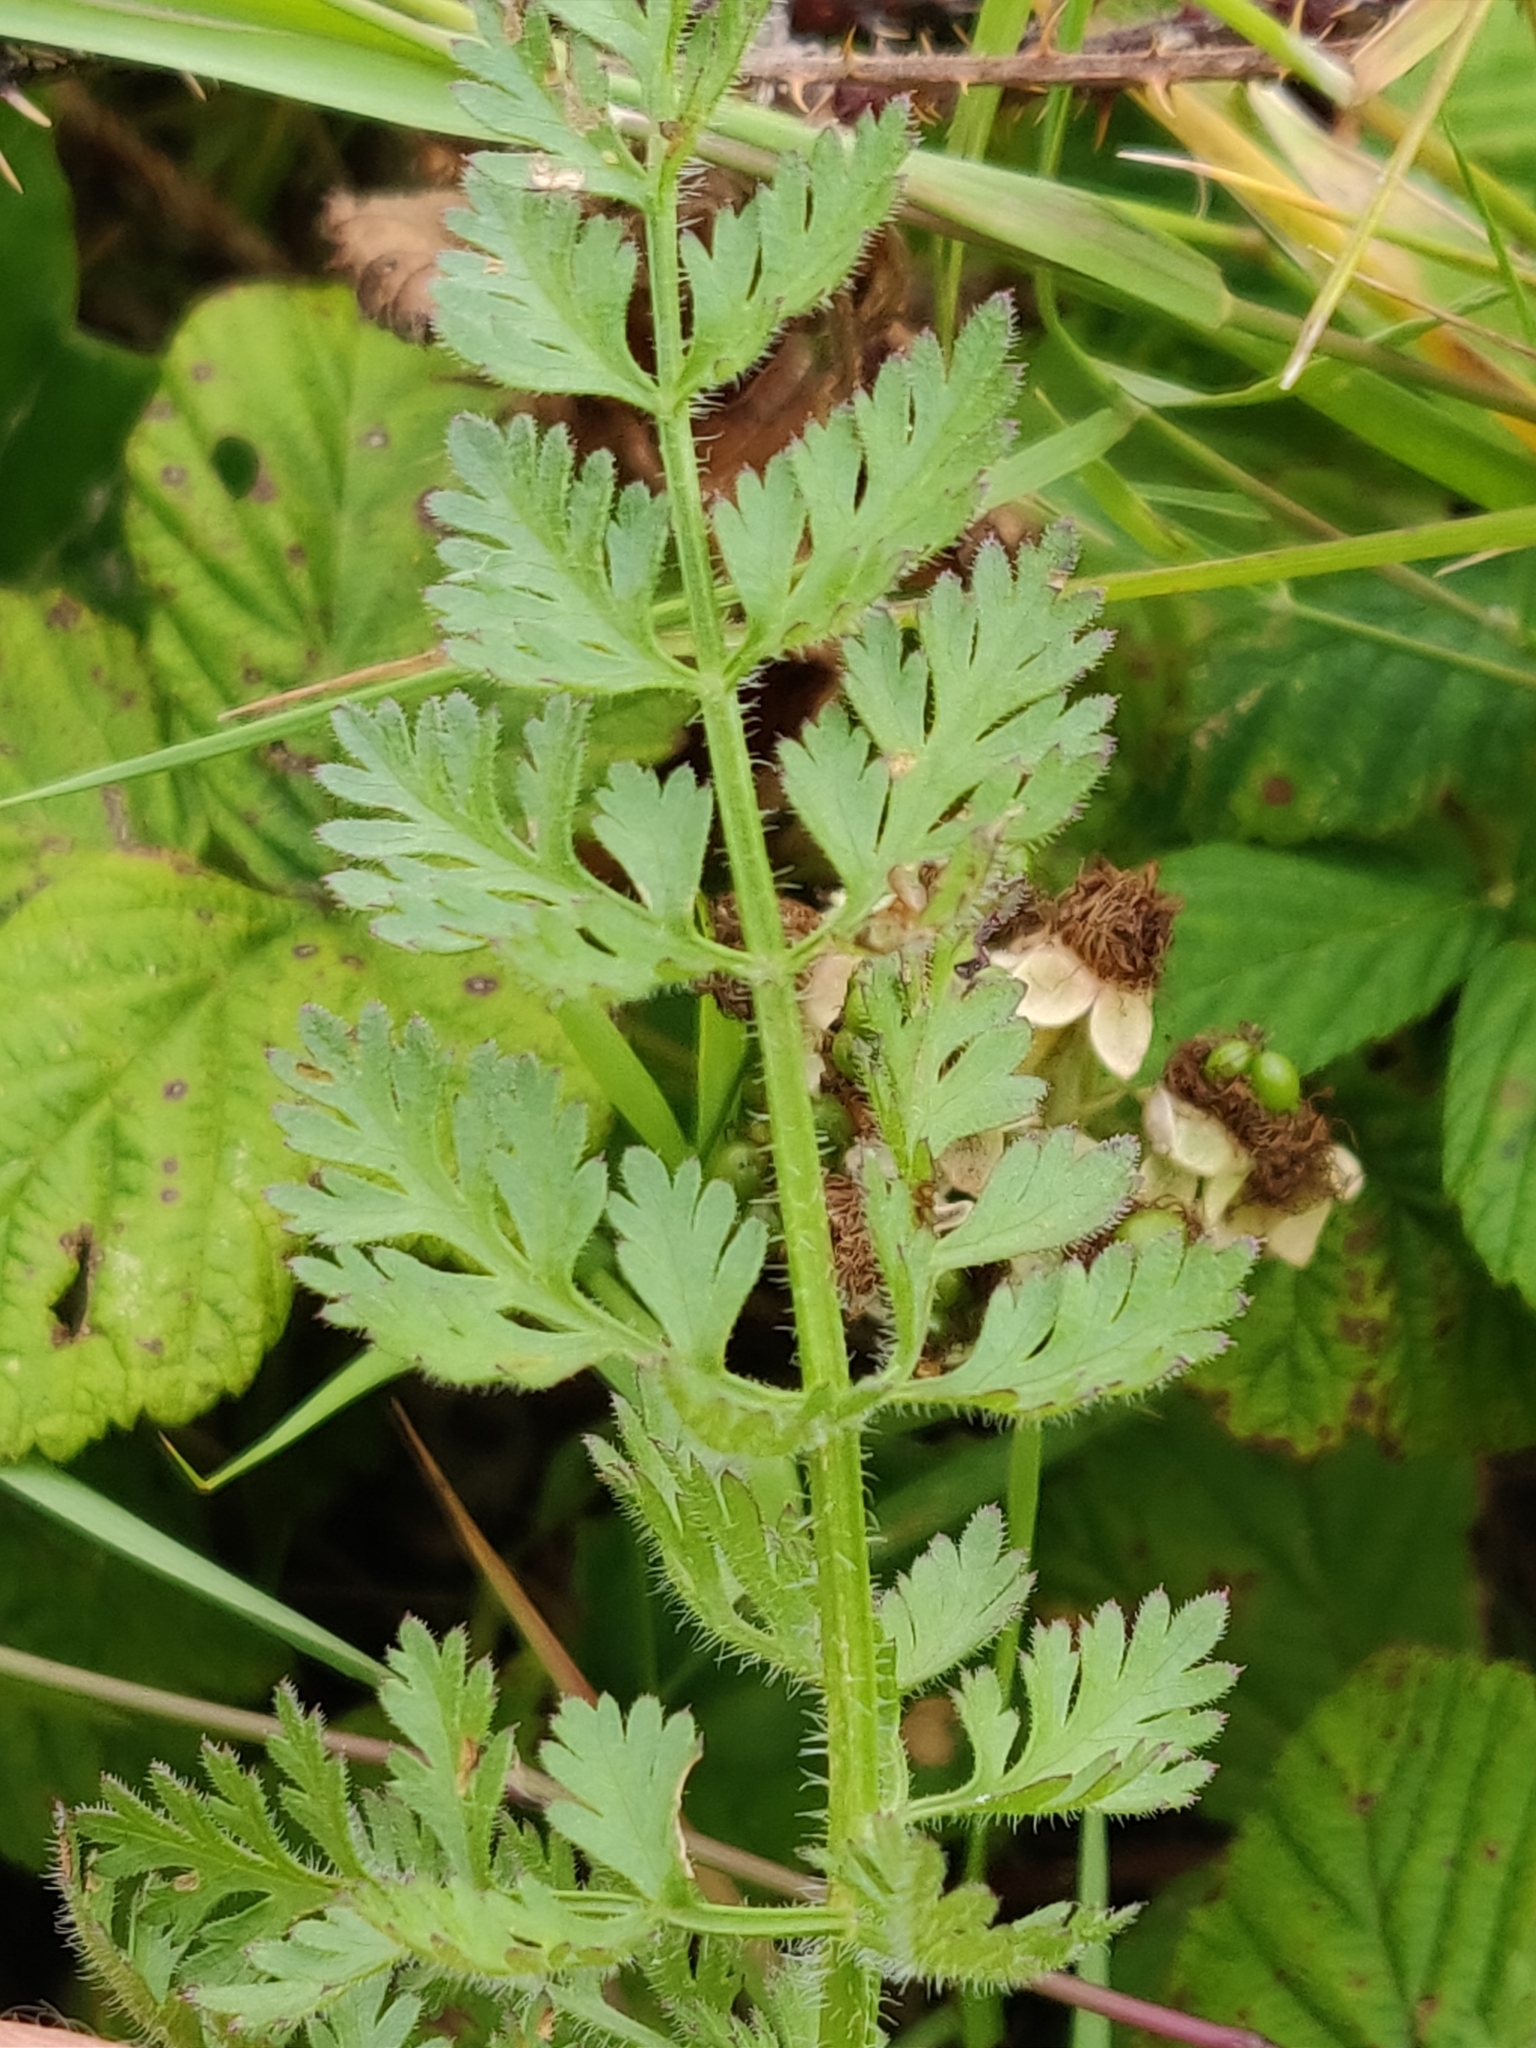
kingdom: Plantae
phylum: Tracheophyta
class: Magnoliopsida
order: Apiales
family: Apiaceae
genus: Daucus
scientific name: Daucus carota
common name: Wild carrot
